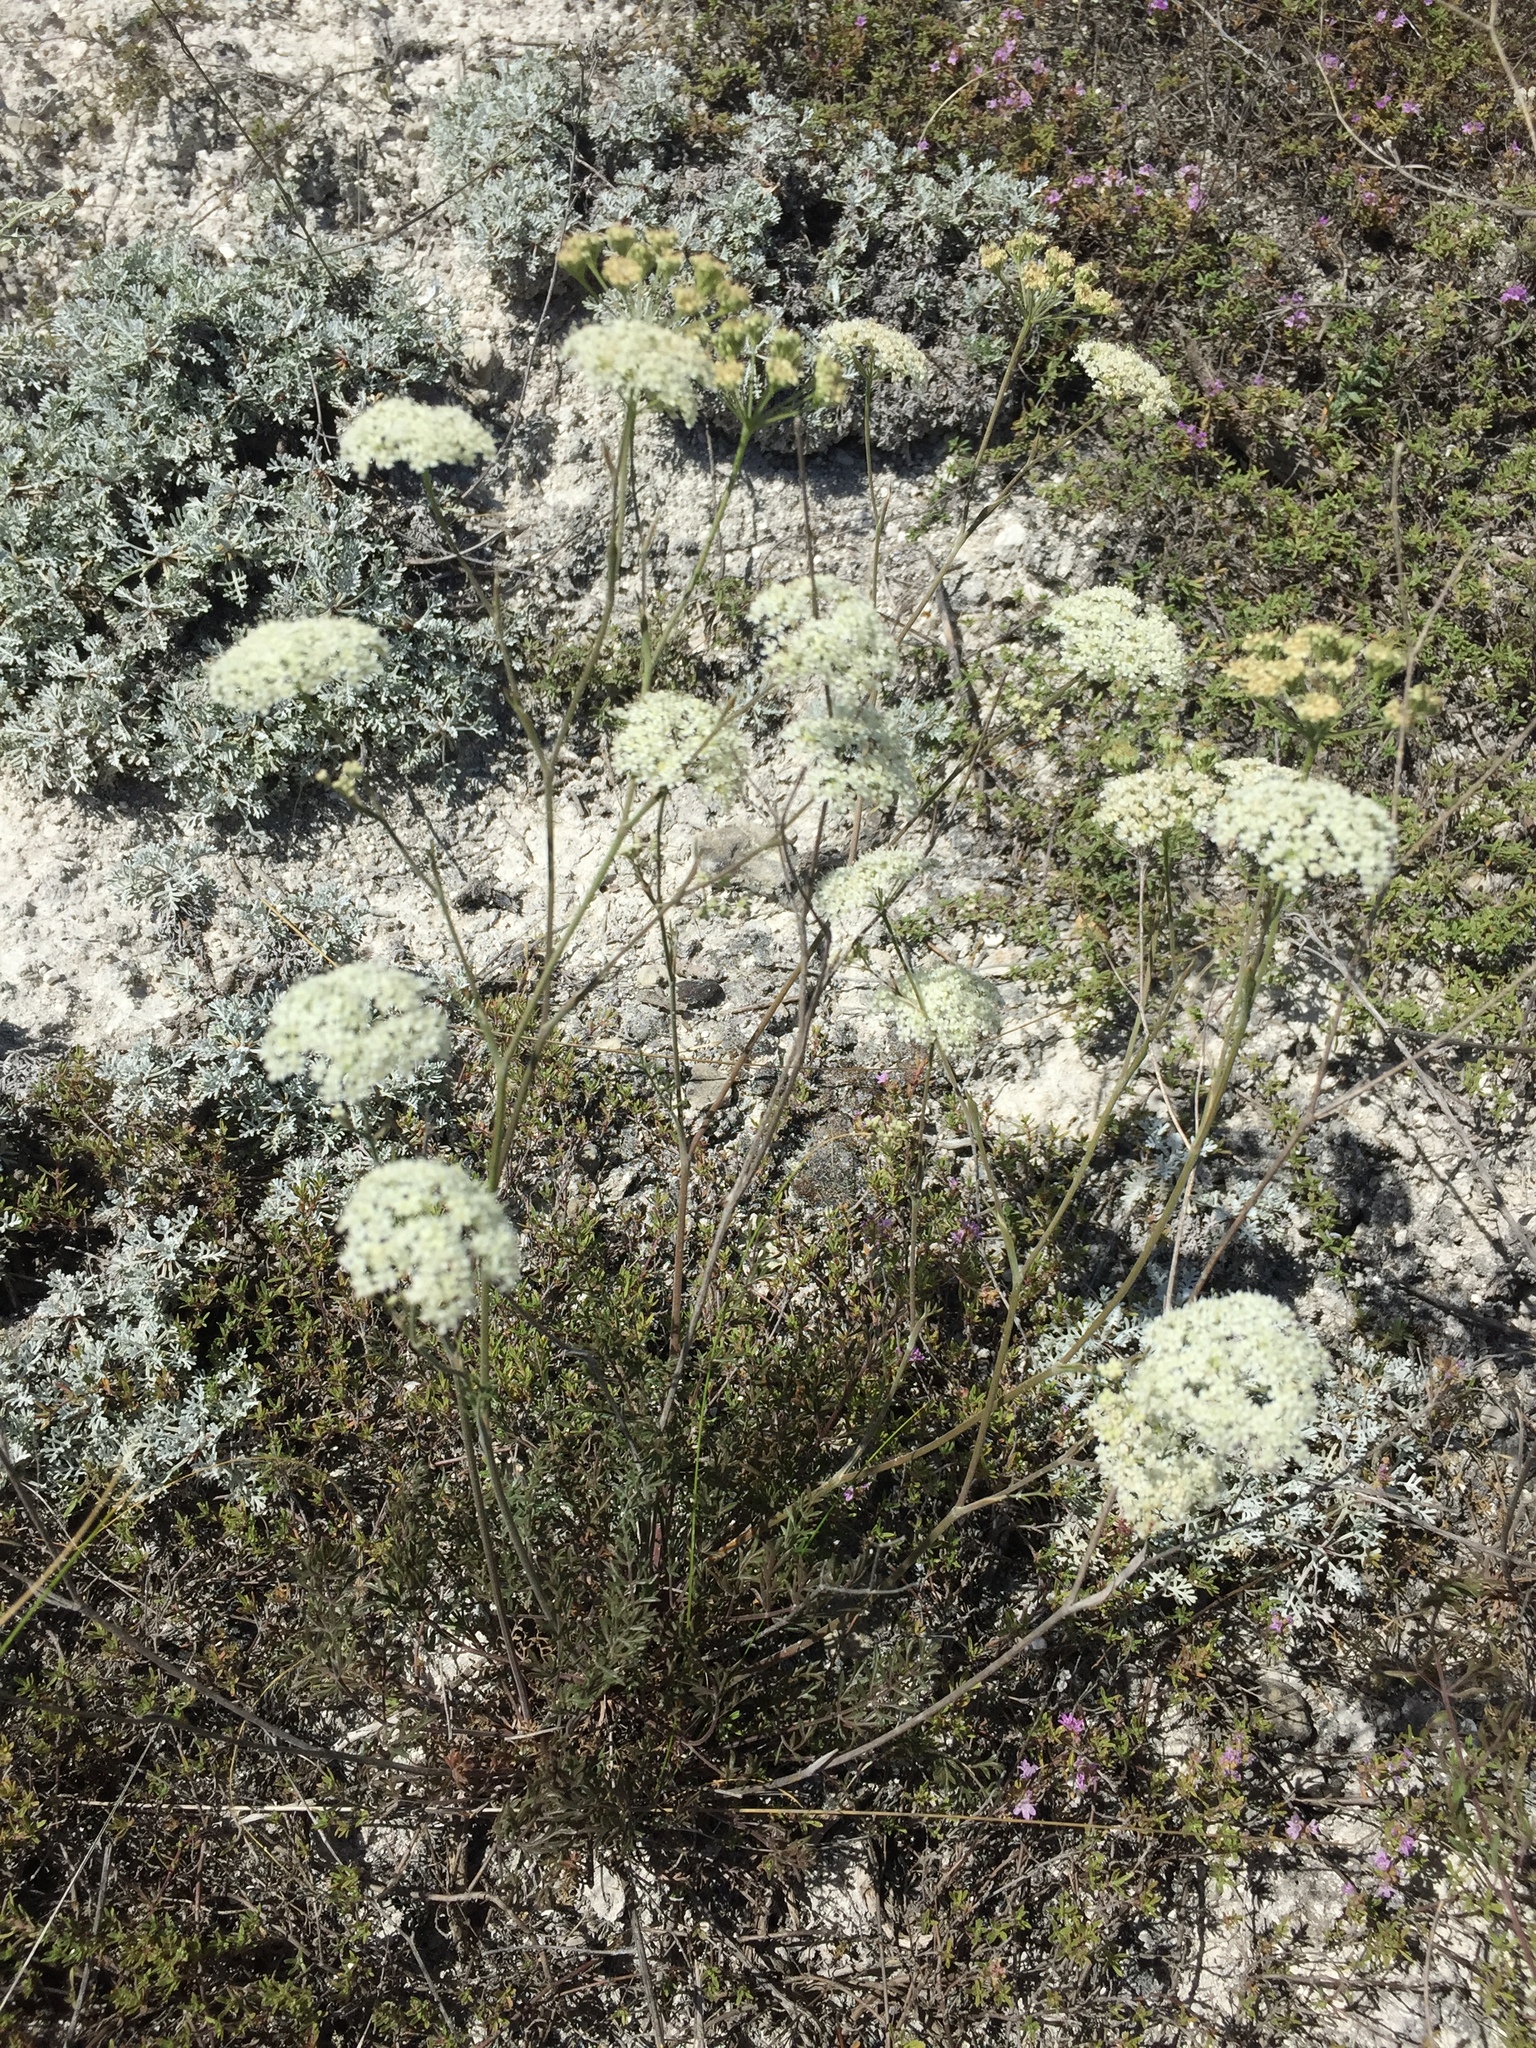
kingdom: Plantae
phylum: Tracheophyta
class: Magnoliopsida
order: Apiales
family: Apiaceae
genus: Pimpinella
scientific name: Pimpinella tragium
